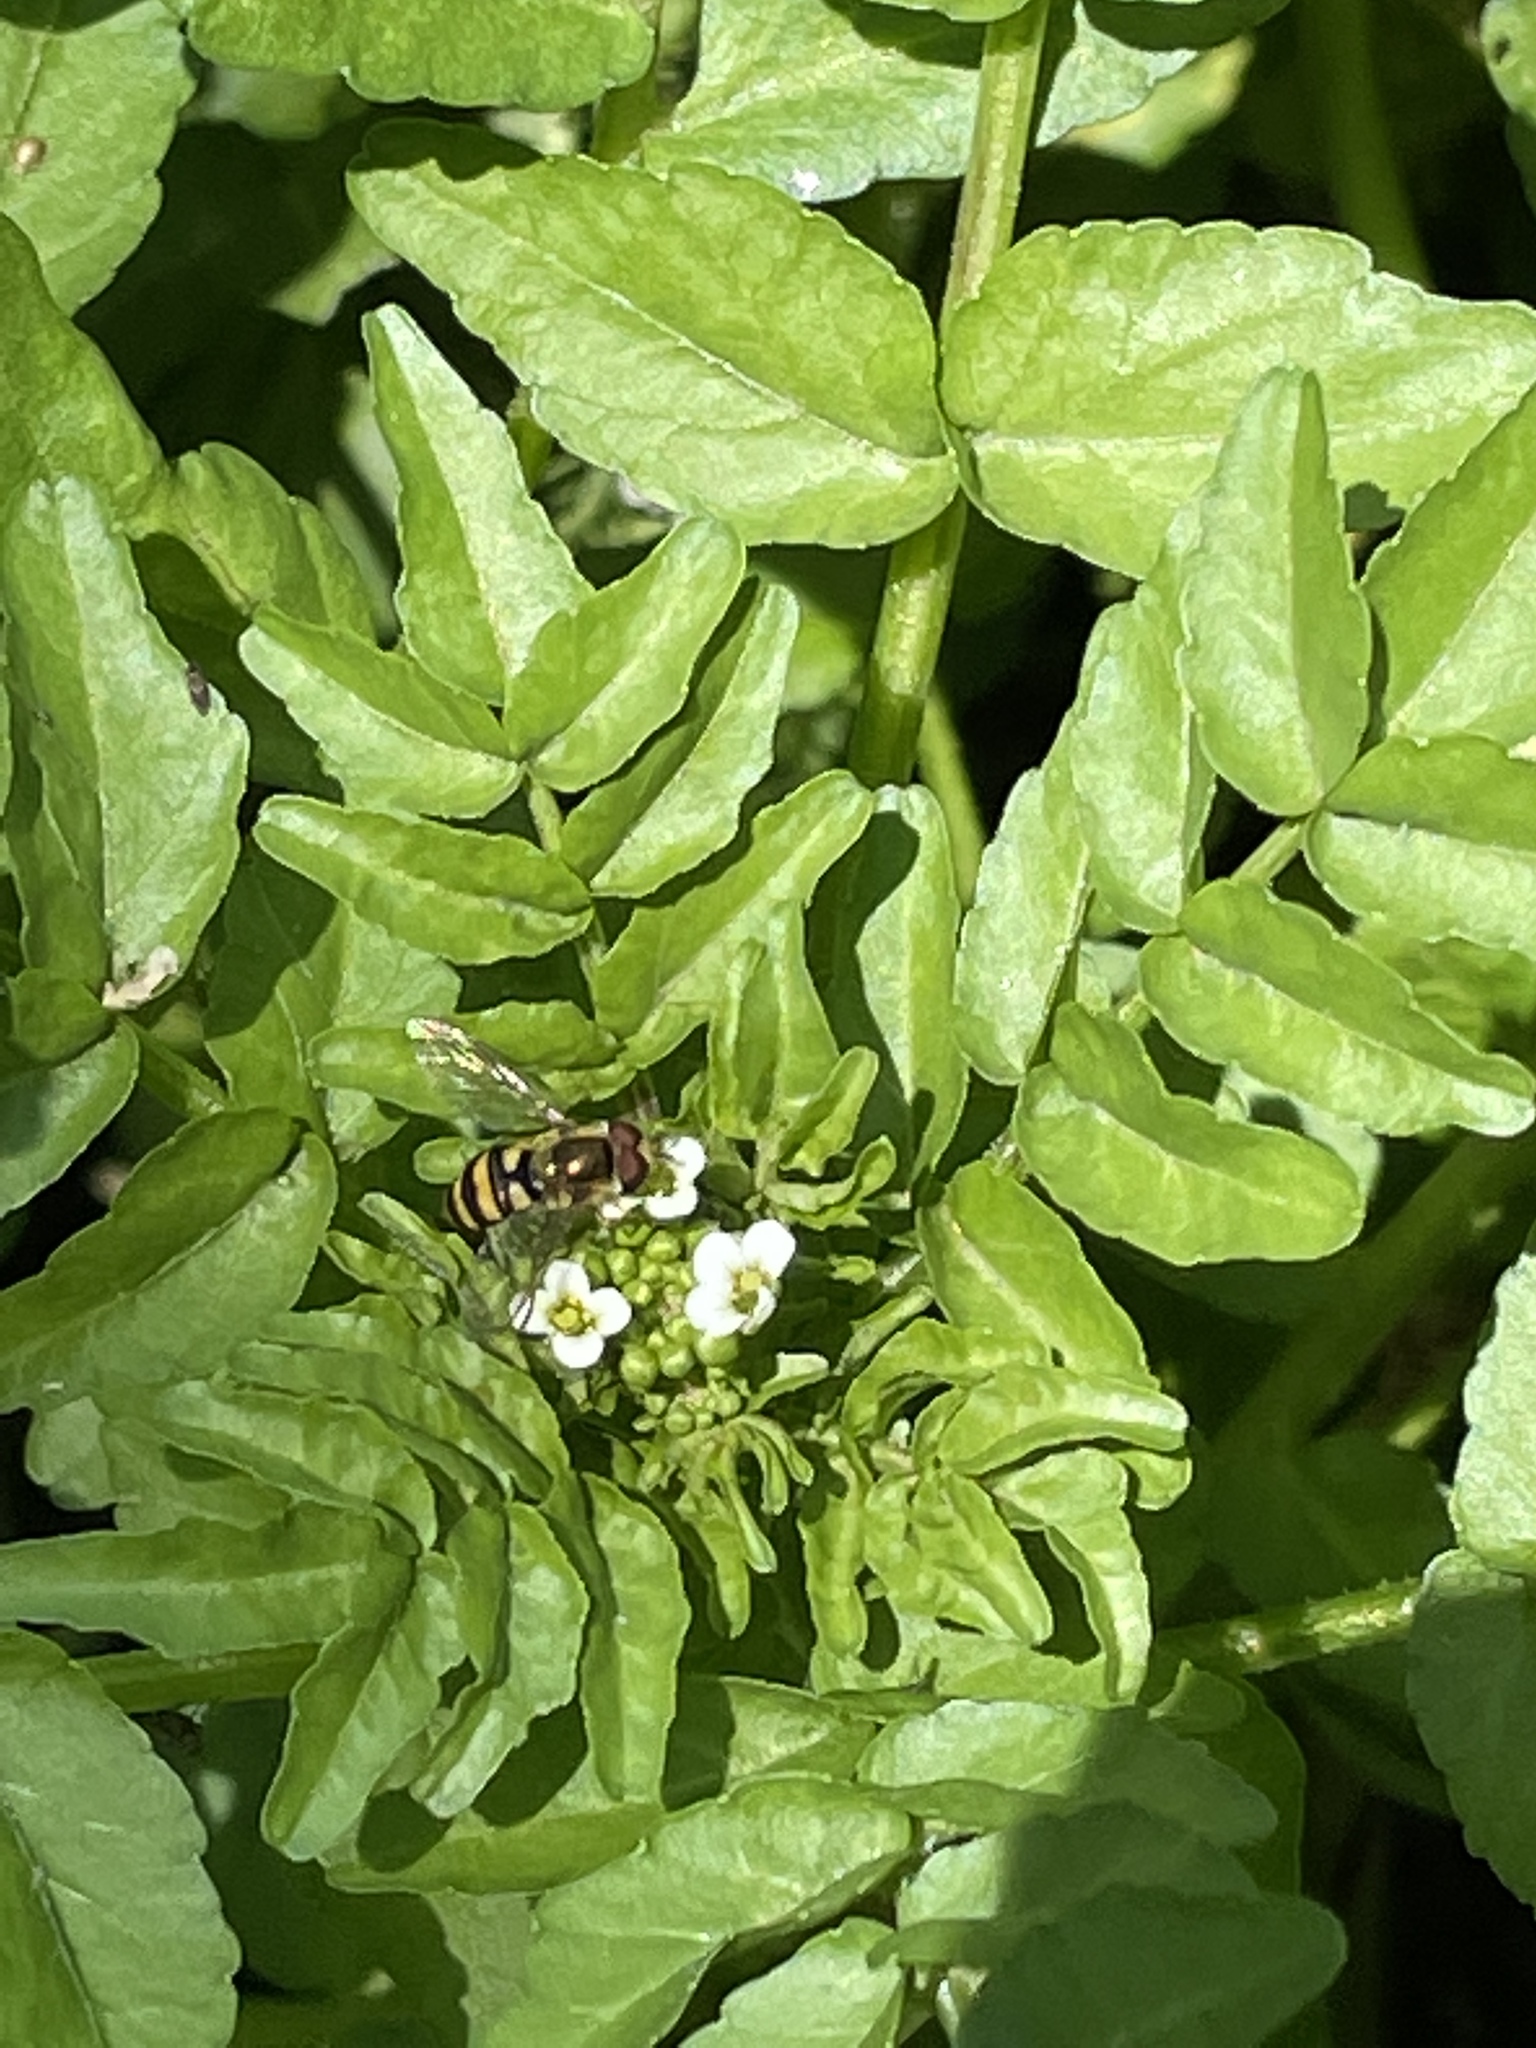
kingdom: Animalia
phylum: Arthropoda
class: Insecta
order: Diptera
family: Syrphidae
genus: Eupeodes
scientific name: Eupeodes
